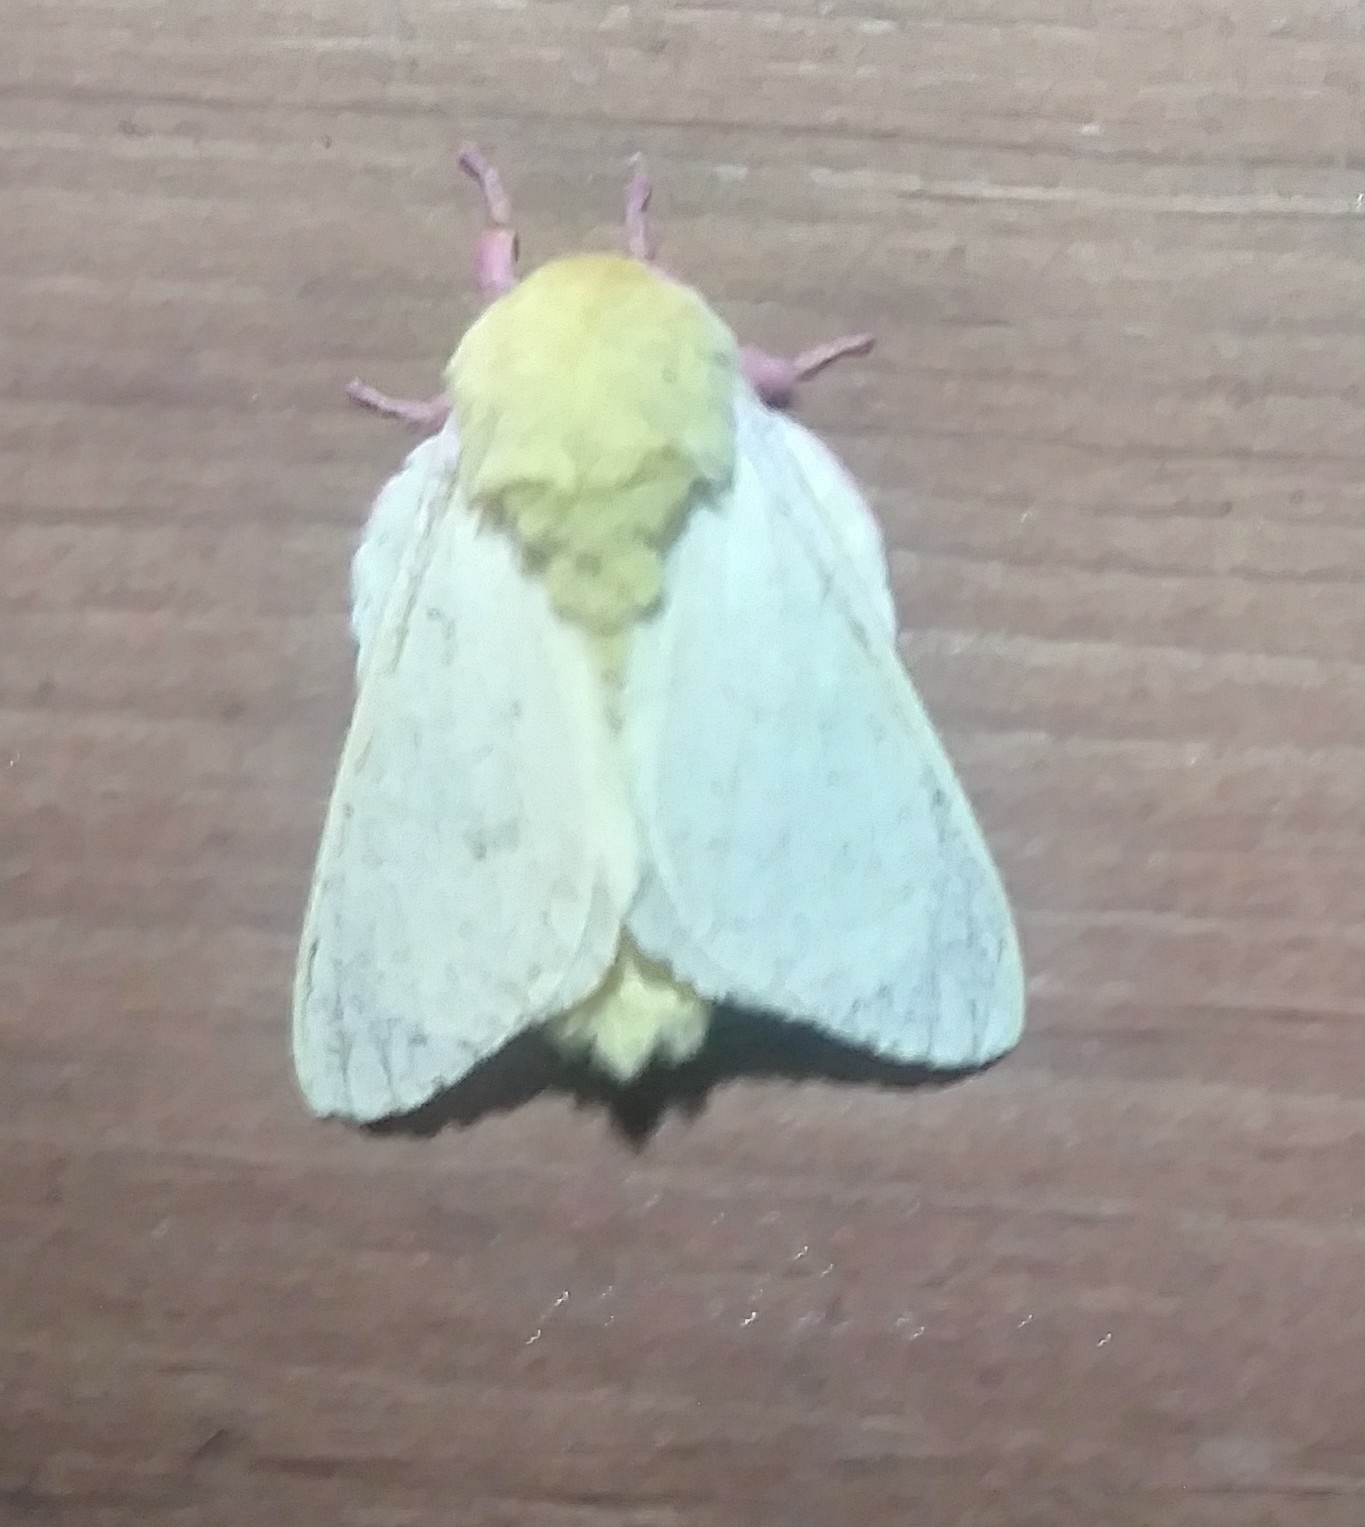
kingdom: Animalia
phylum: Arthropoda
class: Insecta
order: Lepidoptera
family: Saturniidae
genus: Dryocampa
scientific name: Dryocampa rubicunda
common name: Rosy maple moth
